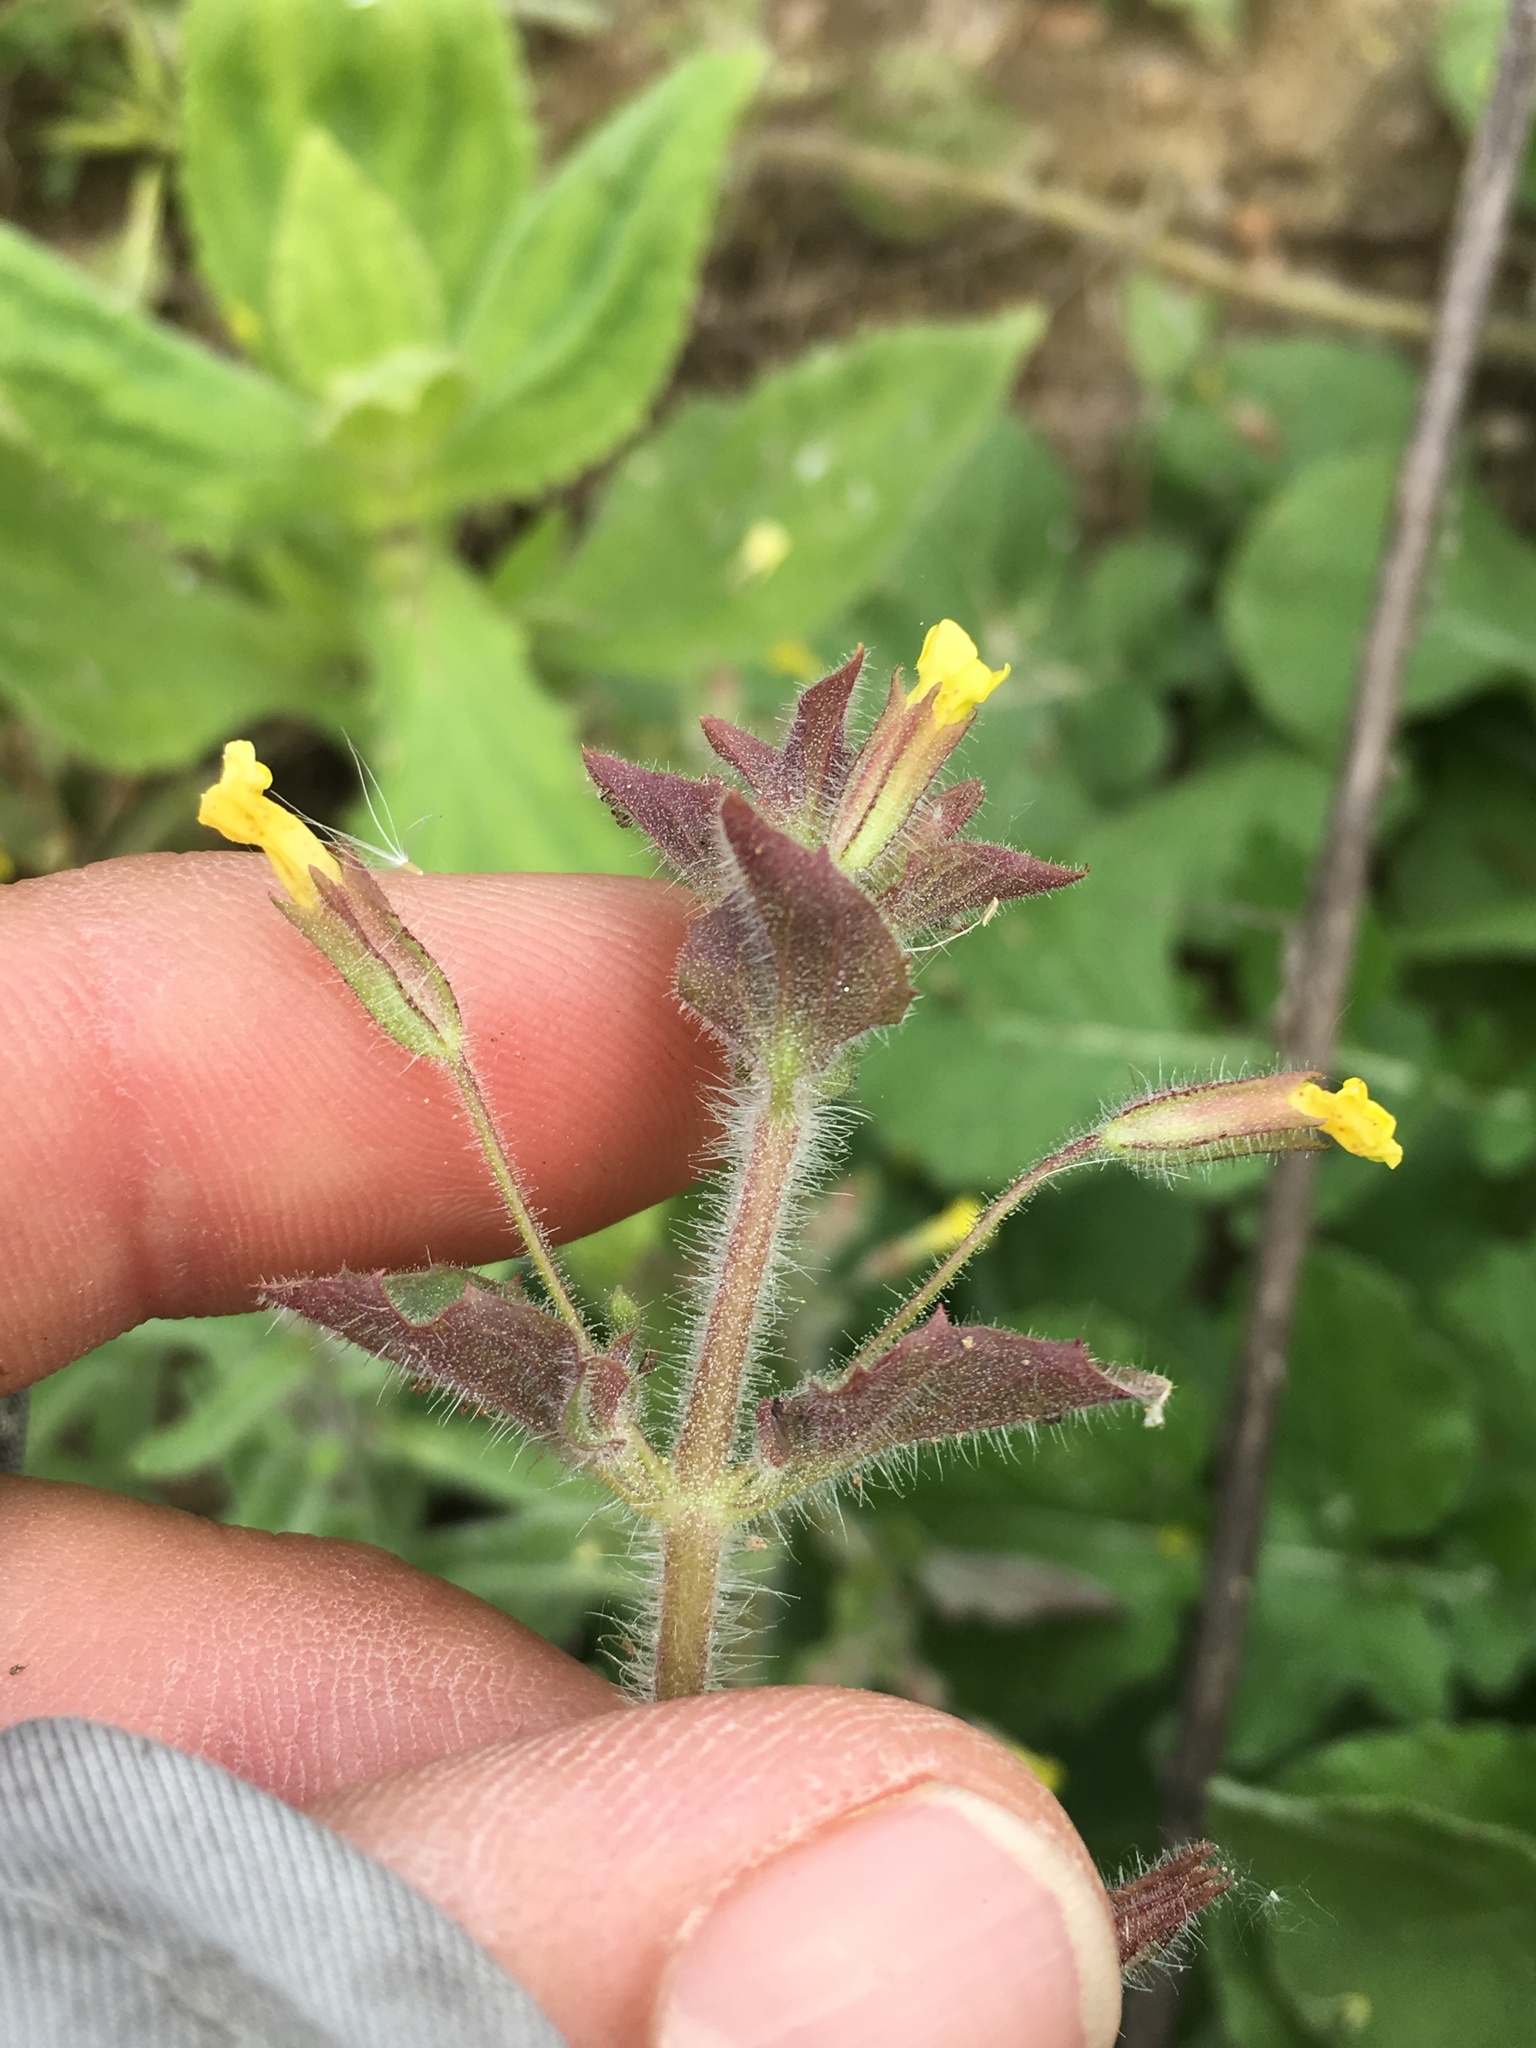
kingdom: Plantae
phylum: Tracheophyta
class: Magnoliopsida
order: Lamiales
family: Phrymaceae
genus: Erythranthe
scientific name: Erythranthe floribunda
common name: Floriferous monkeyflower
